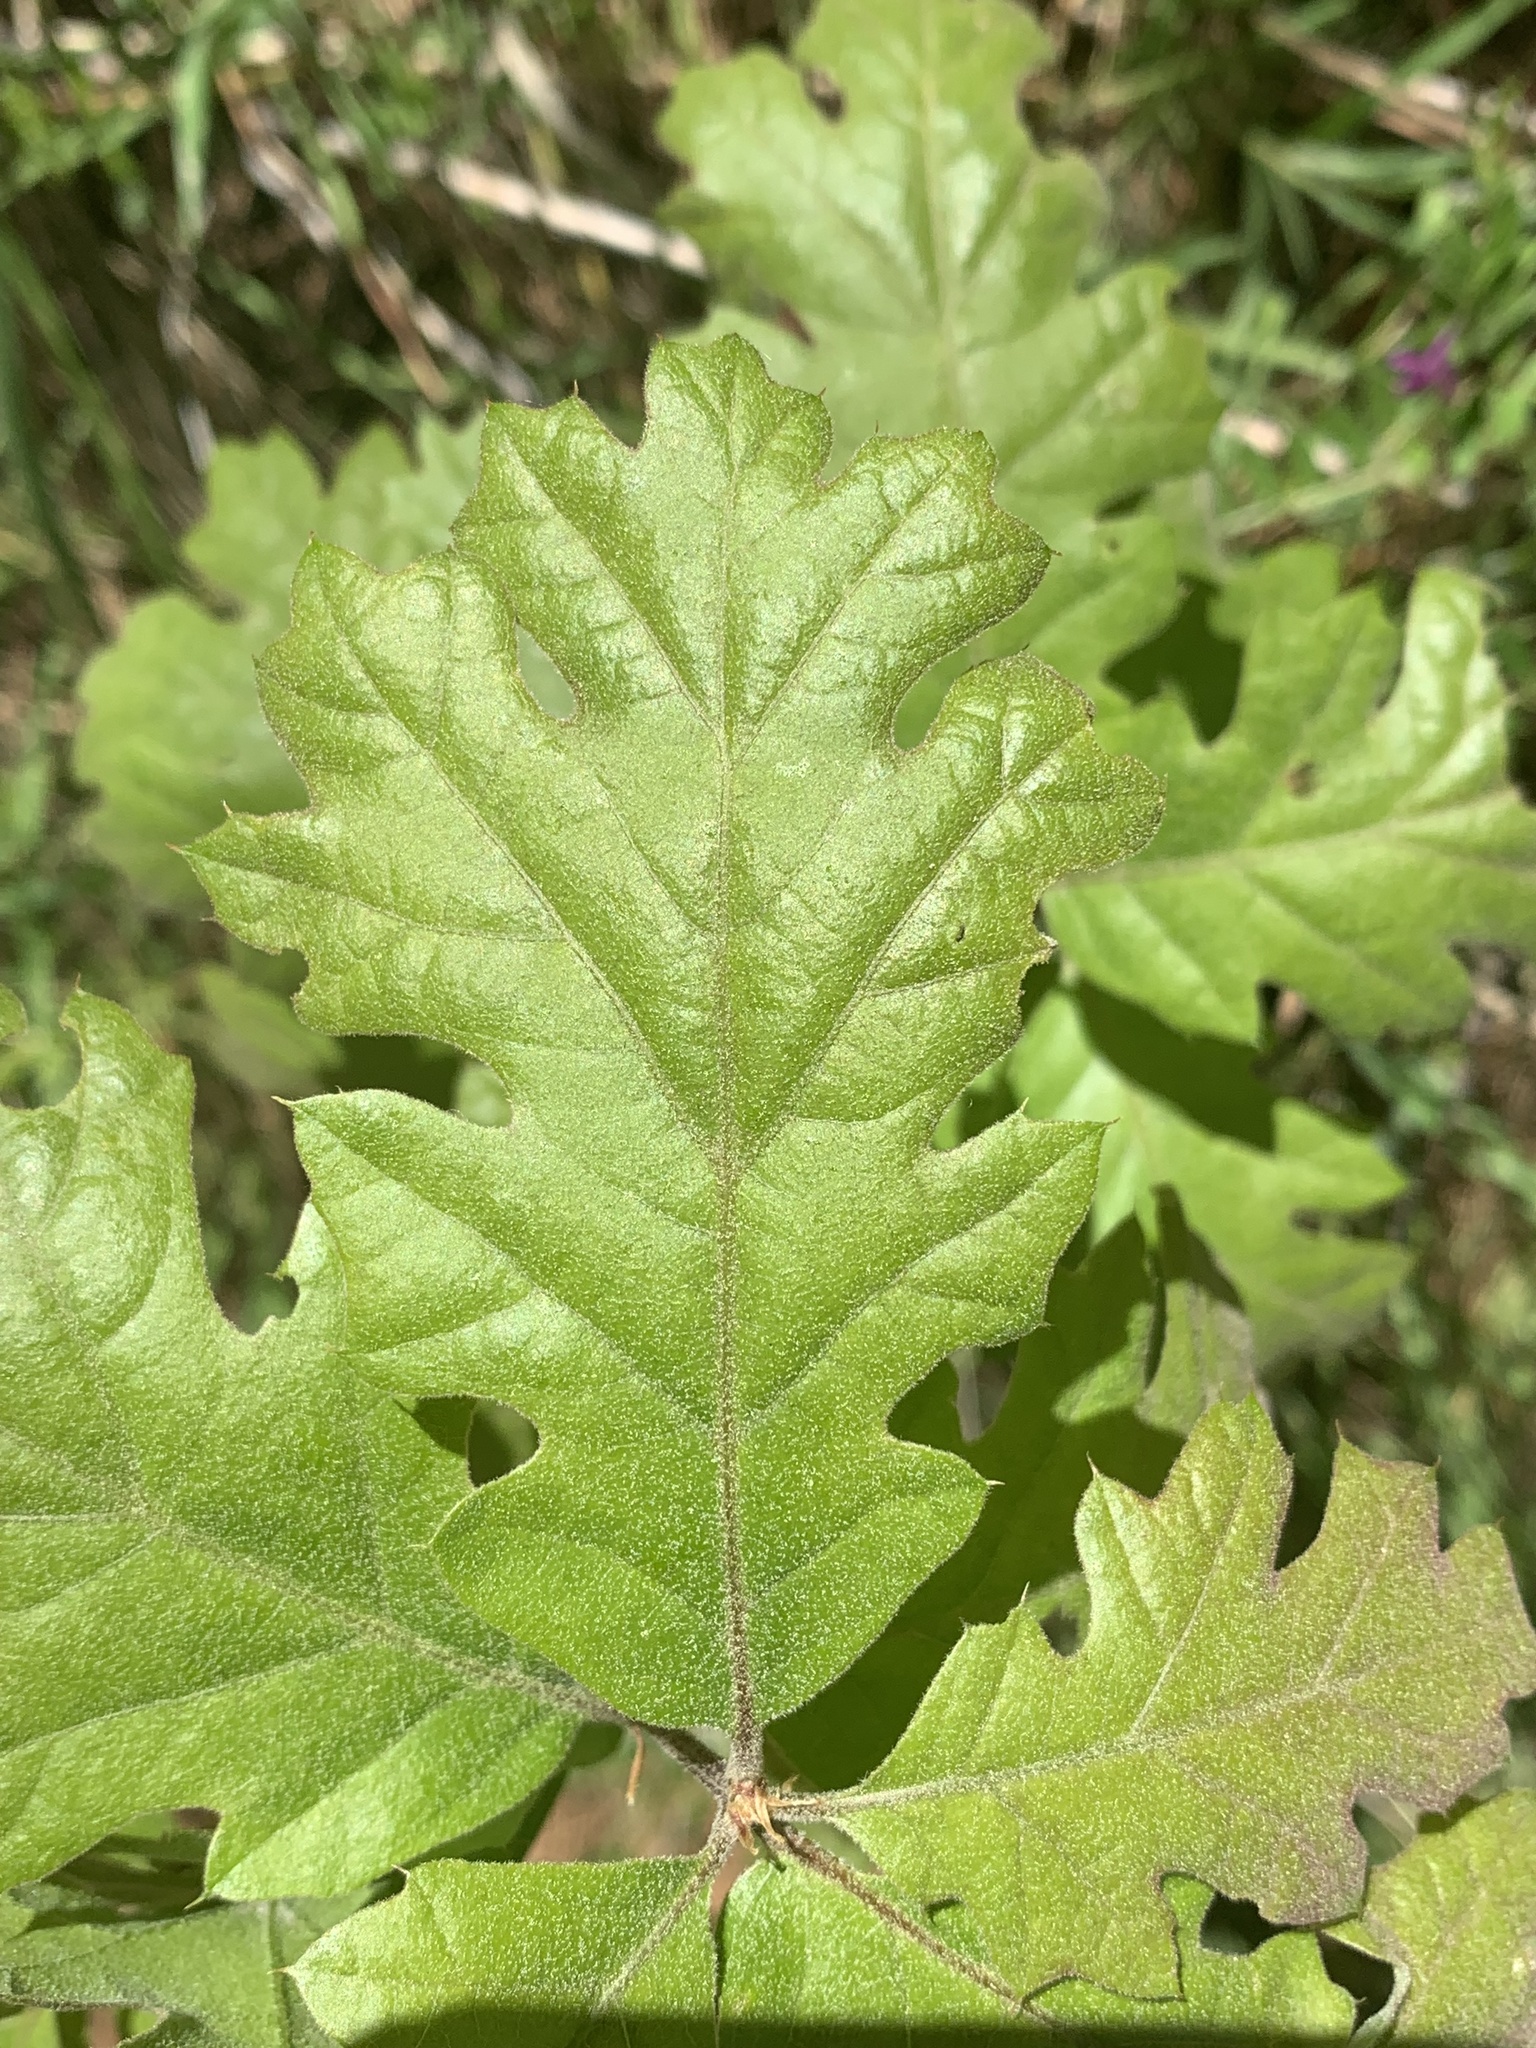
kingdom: Plantae
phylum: Tracheophyta
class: Magnoliopsida
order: Fagales
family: Fagaceae
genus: Quercus
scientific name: Quercus kelloggii
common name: California black oak
